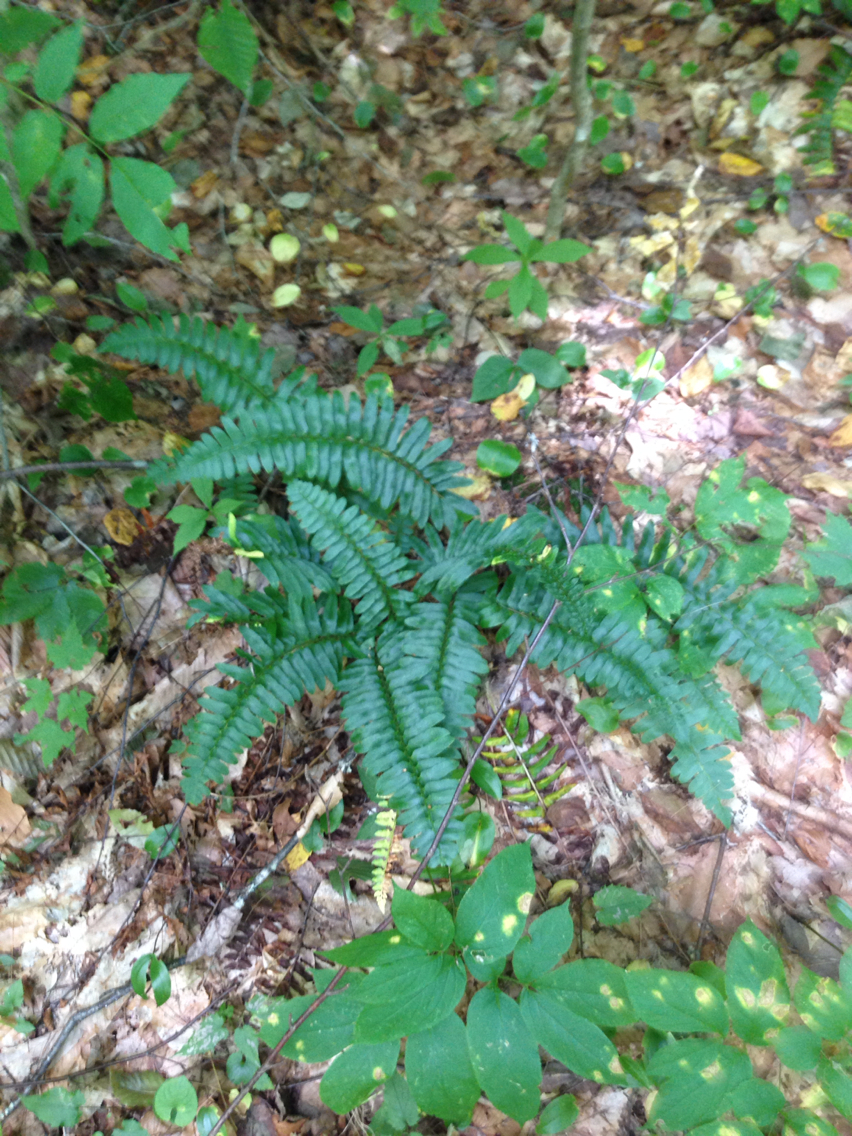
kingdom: Plantae
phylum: Tracheophyta
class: Polypodiopsida
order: Polypodiales
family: Dryopteridaceae
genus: Polystichum
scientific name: Polystichum acrostichoides
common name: Christmas fern
